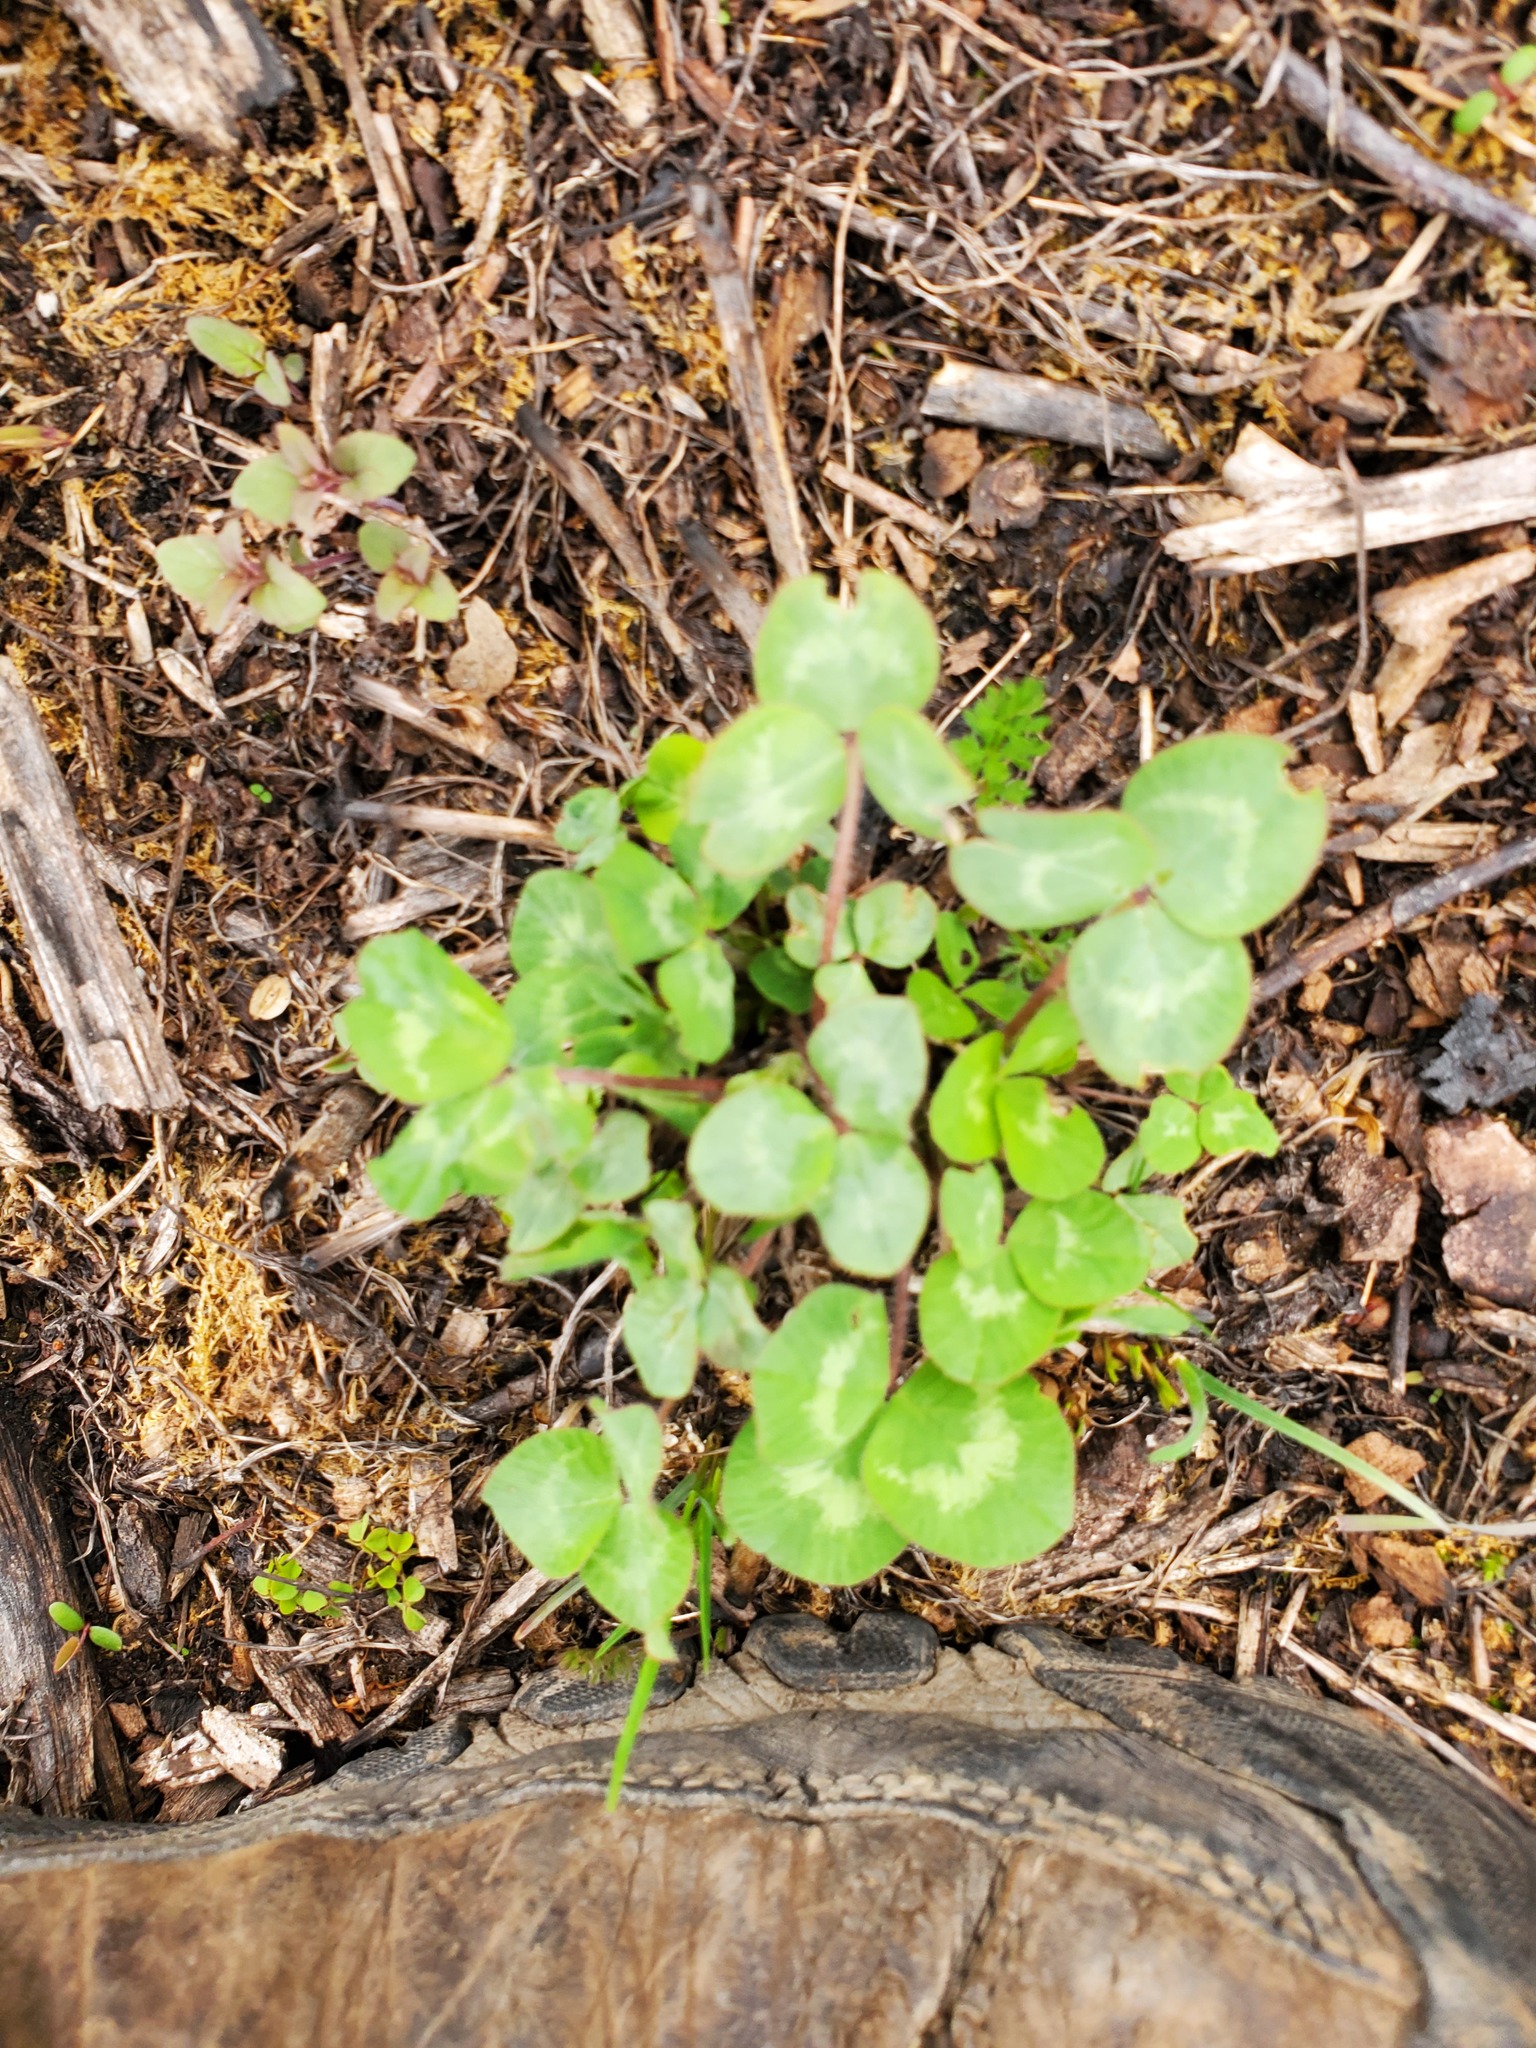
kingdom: Plantae
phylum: Tracheophyta
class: Magnoliopsida
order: Fabales
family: Fabaceae
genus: Trifolium
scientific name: Trifolium repens
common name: White clover
